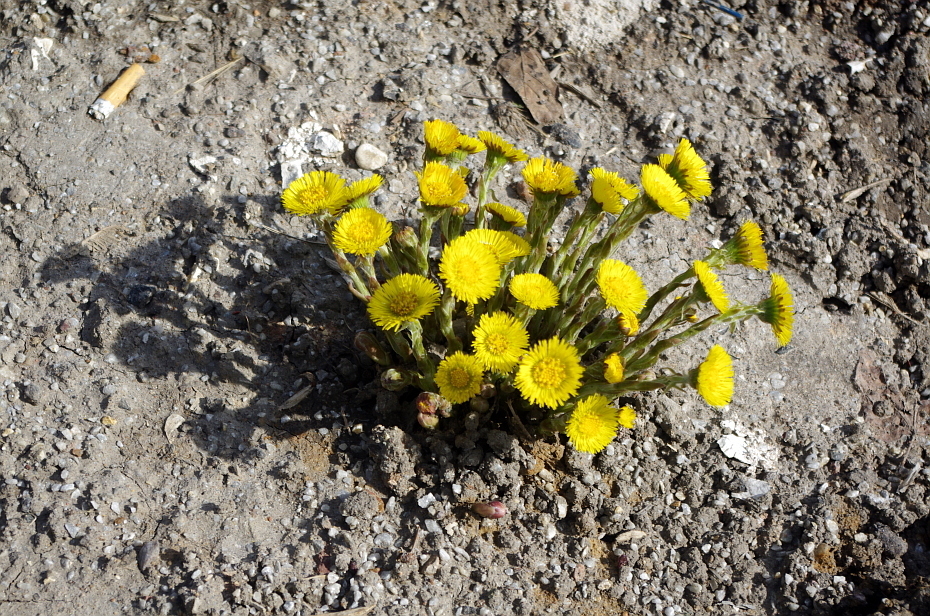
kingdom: Plantae
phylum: Tracheophyta
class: Magnoliopsida
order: Asterales
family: Asteraceae
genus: Tussilago
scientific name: Tussilago farfara
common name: Coltsfoot
